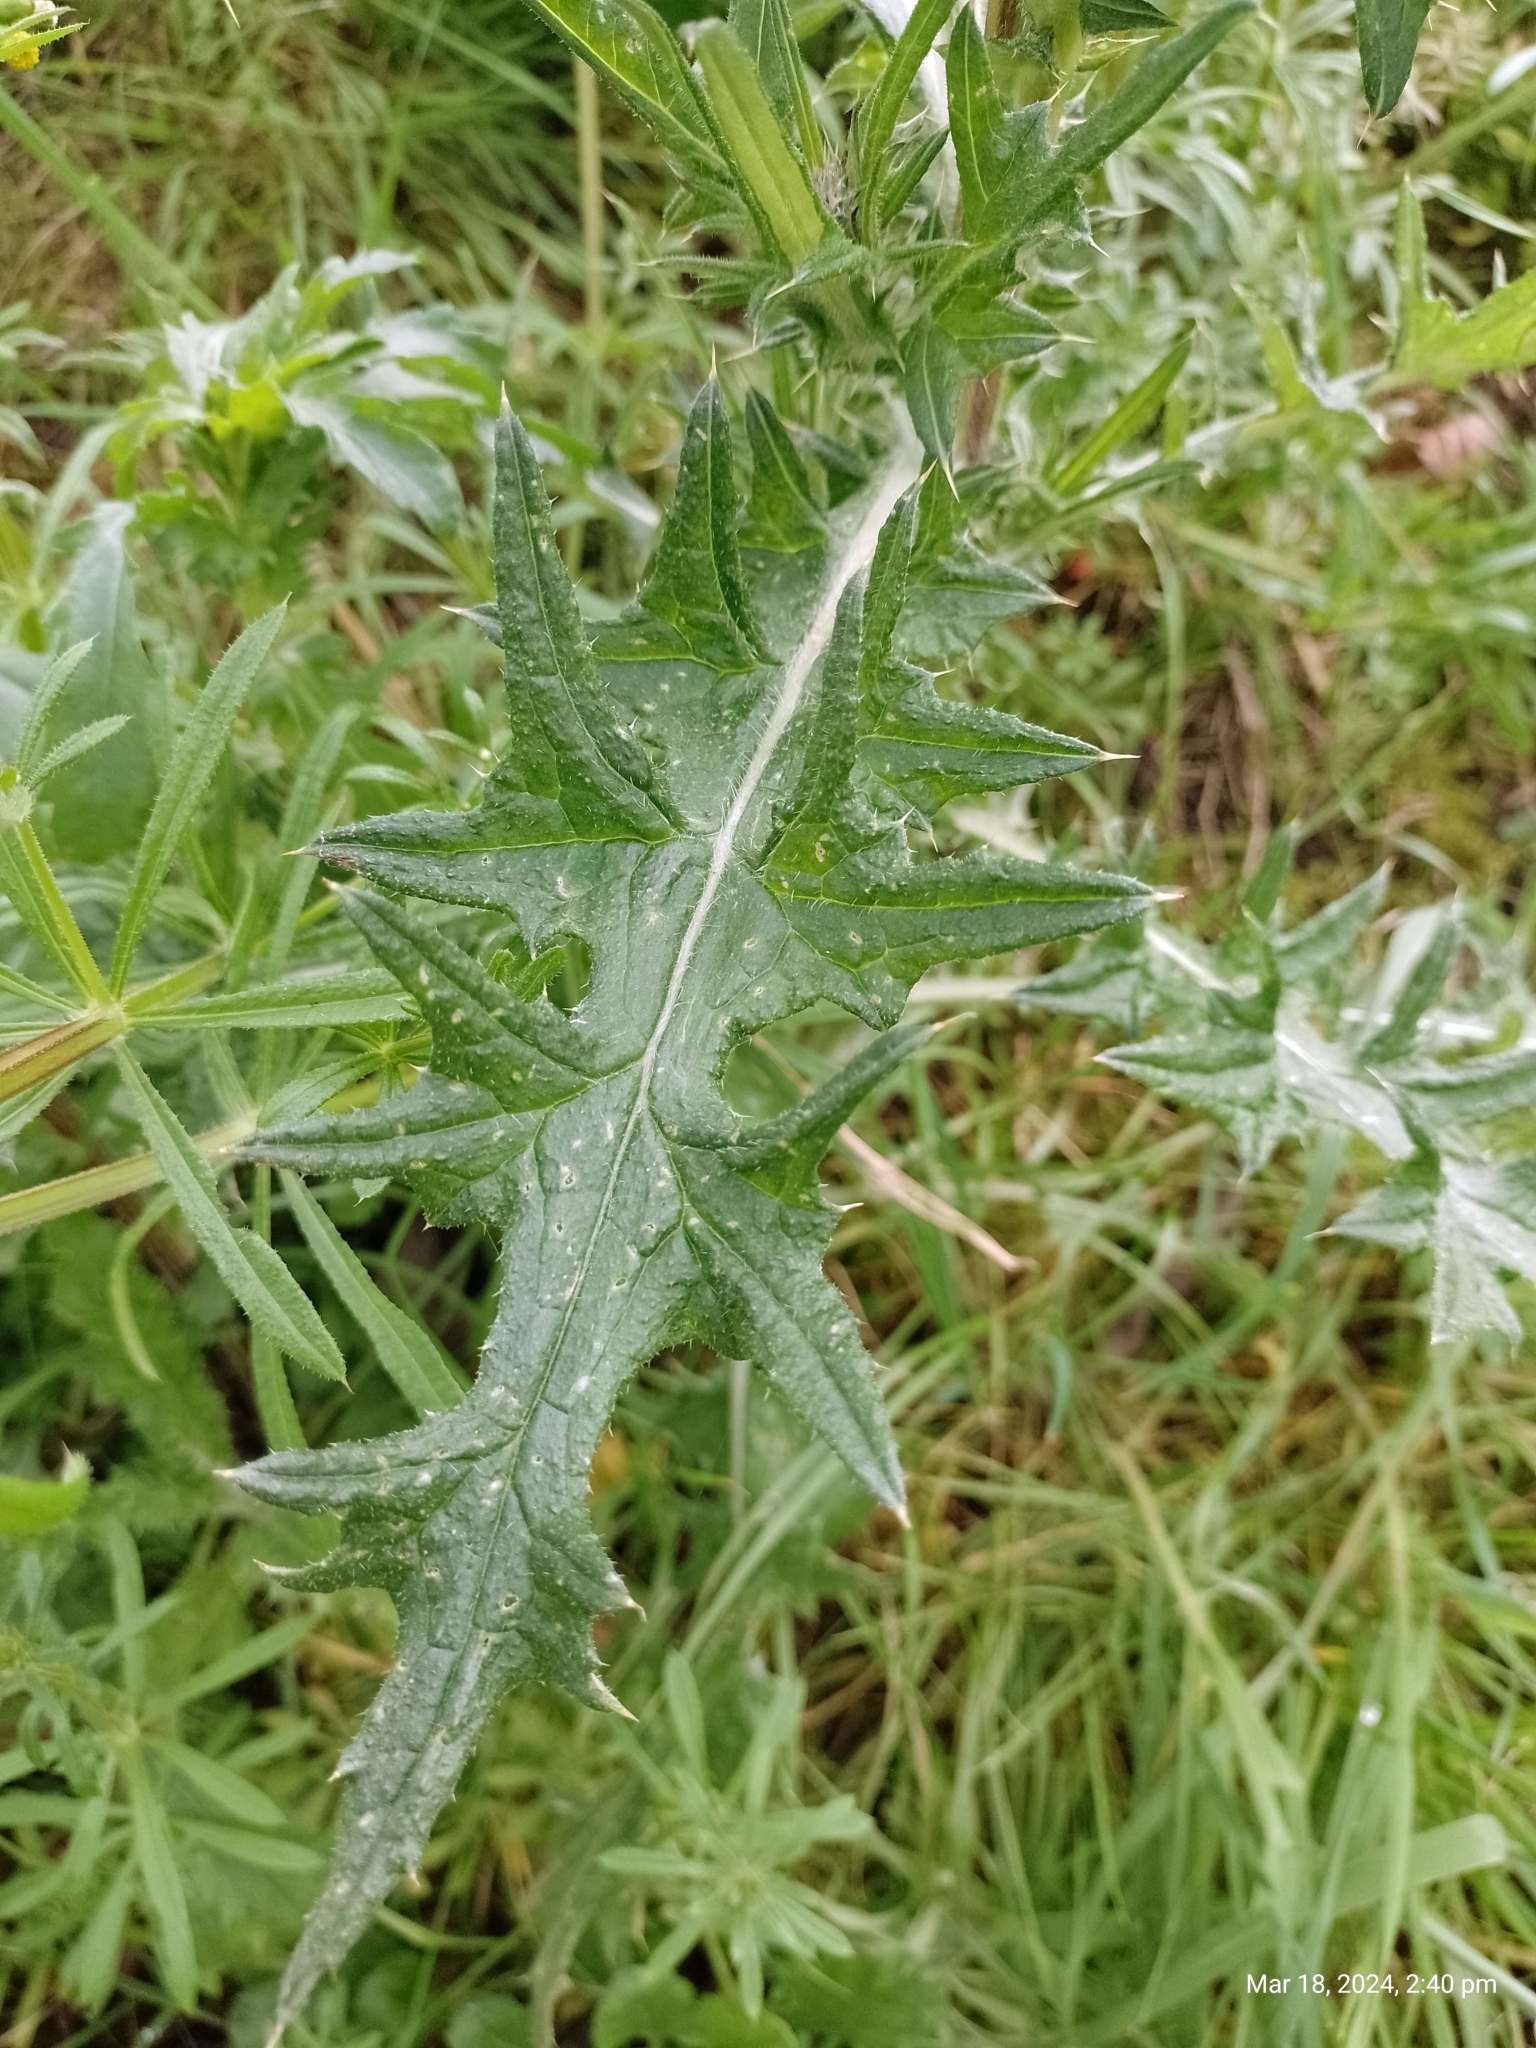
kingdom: Plantae
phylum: Tracheophyta
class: Magnoliopsida
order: Asterales
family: Asteraceae
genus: Cirsium
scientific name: Cirsium vulgare
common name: Bull thistle
